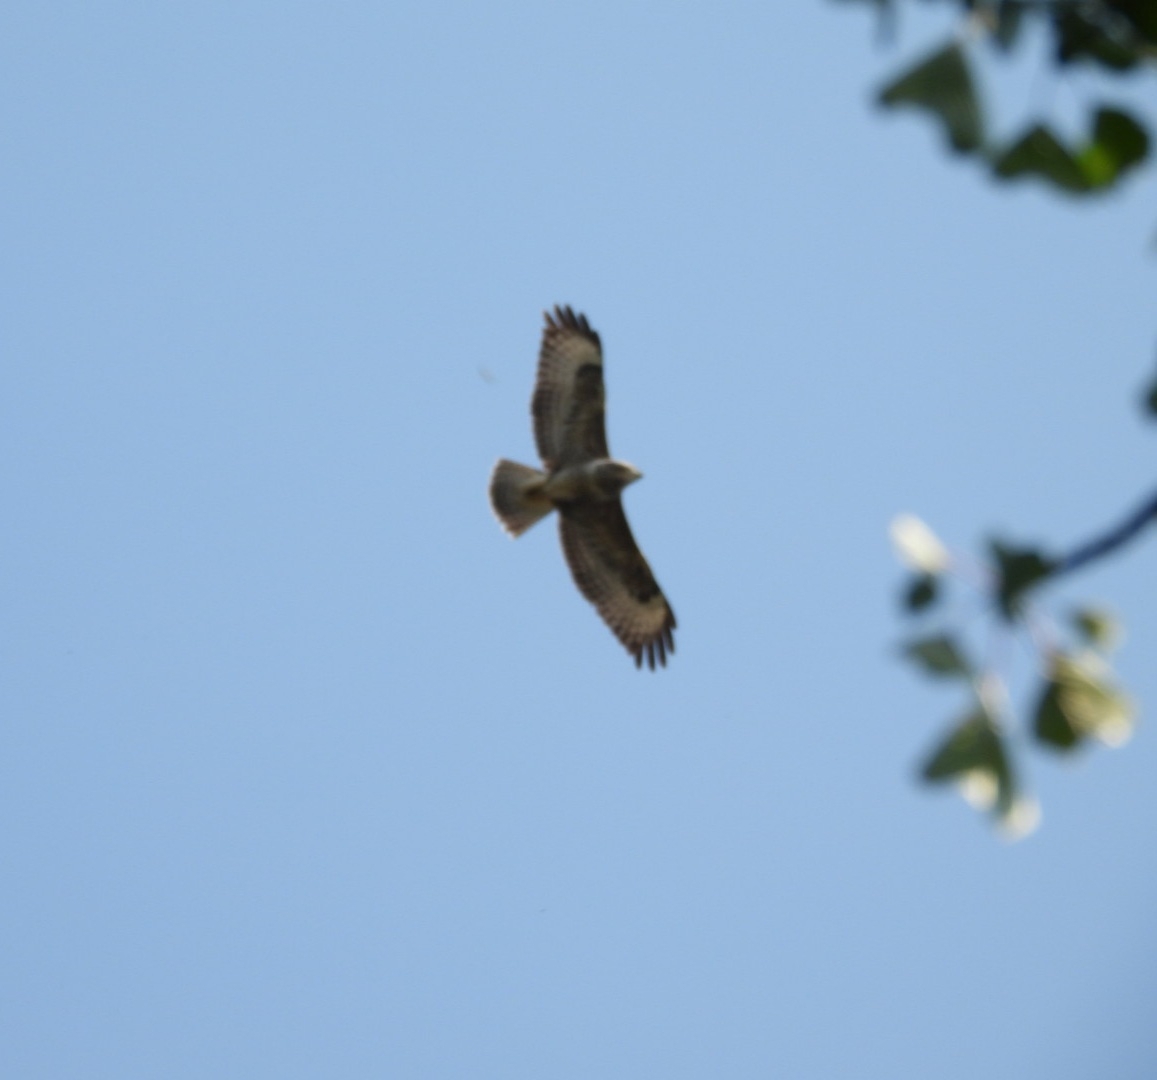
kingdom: Animalia
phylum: Chordata
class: Aves
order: Accipitriformes
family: Accipitridae
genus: Buteo
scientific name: Buteo buteo
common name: Common buzzard
